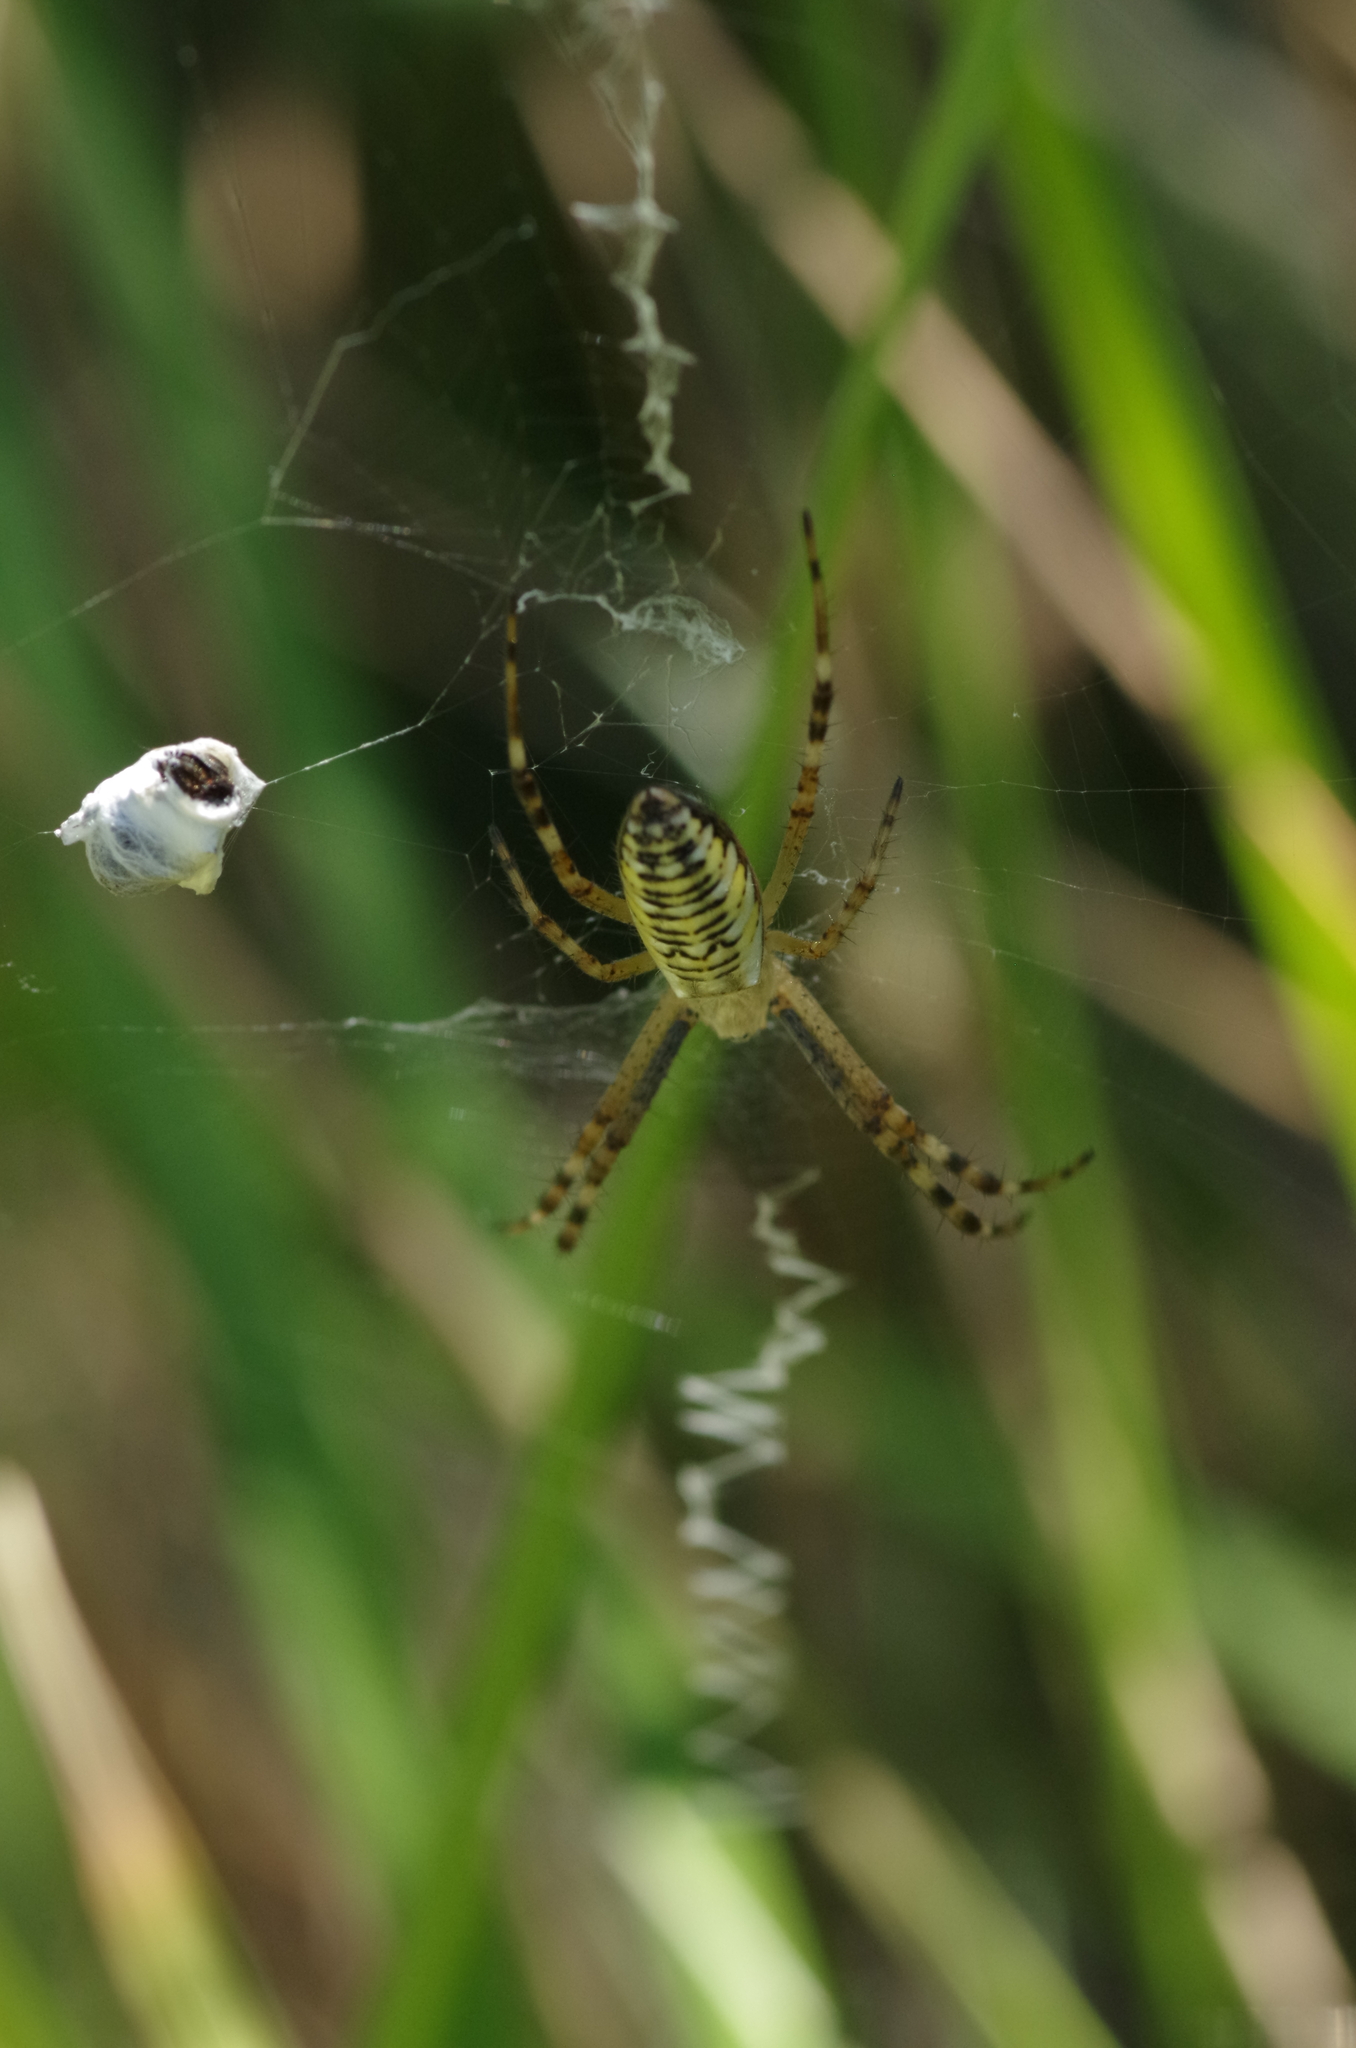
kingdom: Animalia
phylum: Arthropoda
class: Arachnida
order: Araneae
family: Araneidae
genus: Argiope
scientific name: Argiope bruennichi
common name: Wasp spider
